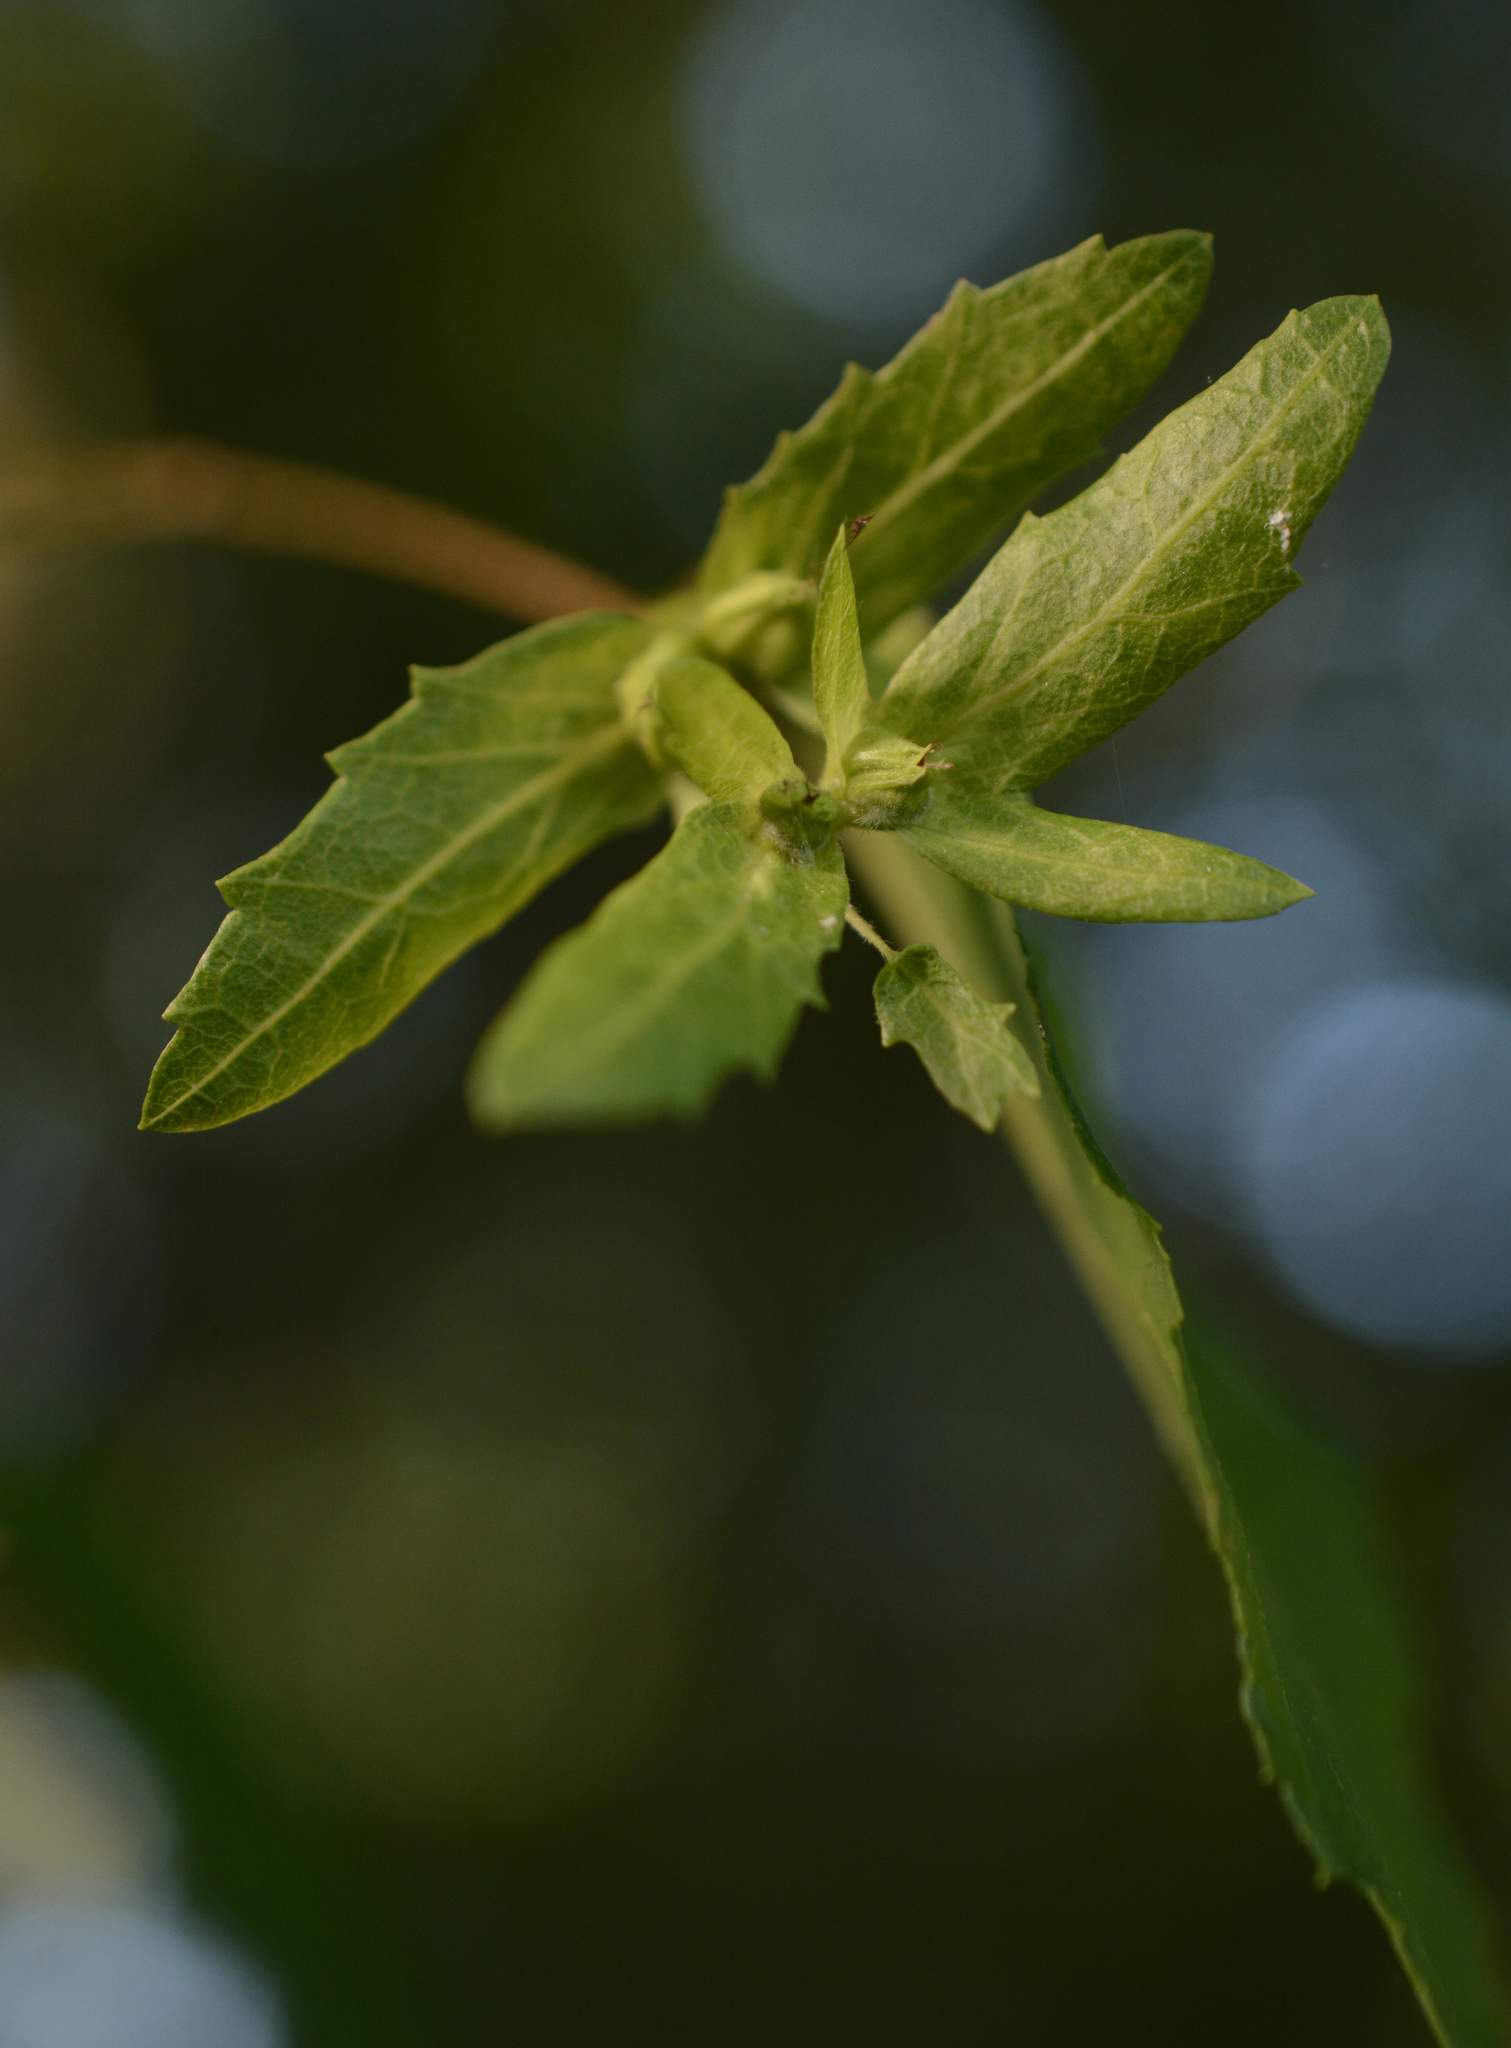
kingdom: Plantae
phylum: Tracheophyta
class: Magnoliopsida
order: Fagales
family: Betulaceae
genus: Carpinus
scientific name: Carpinus caroliniana
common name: American hornbeam
